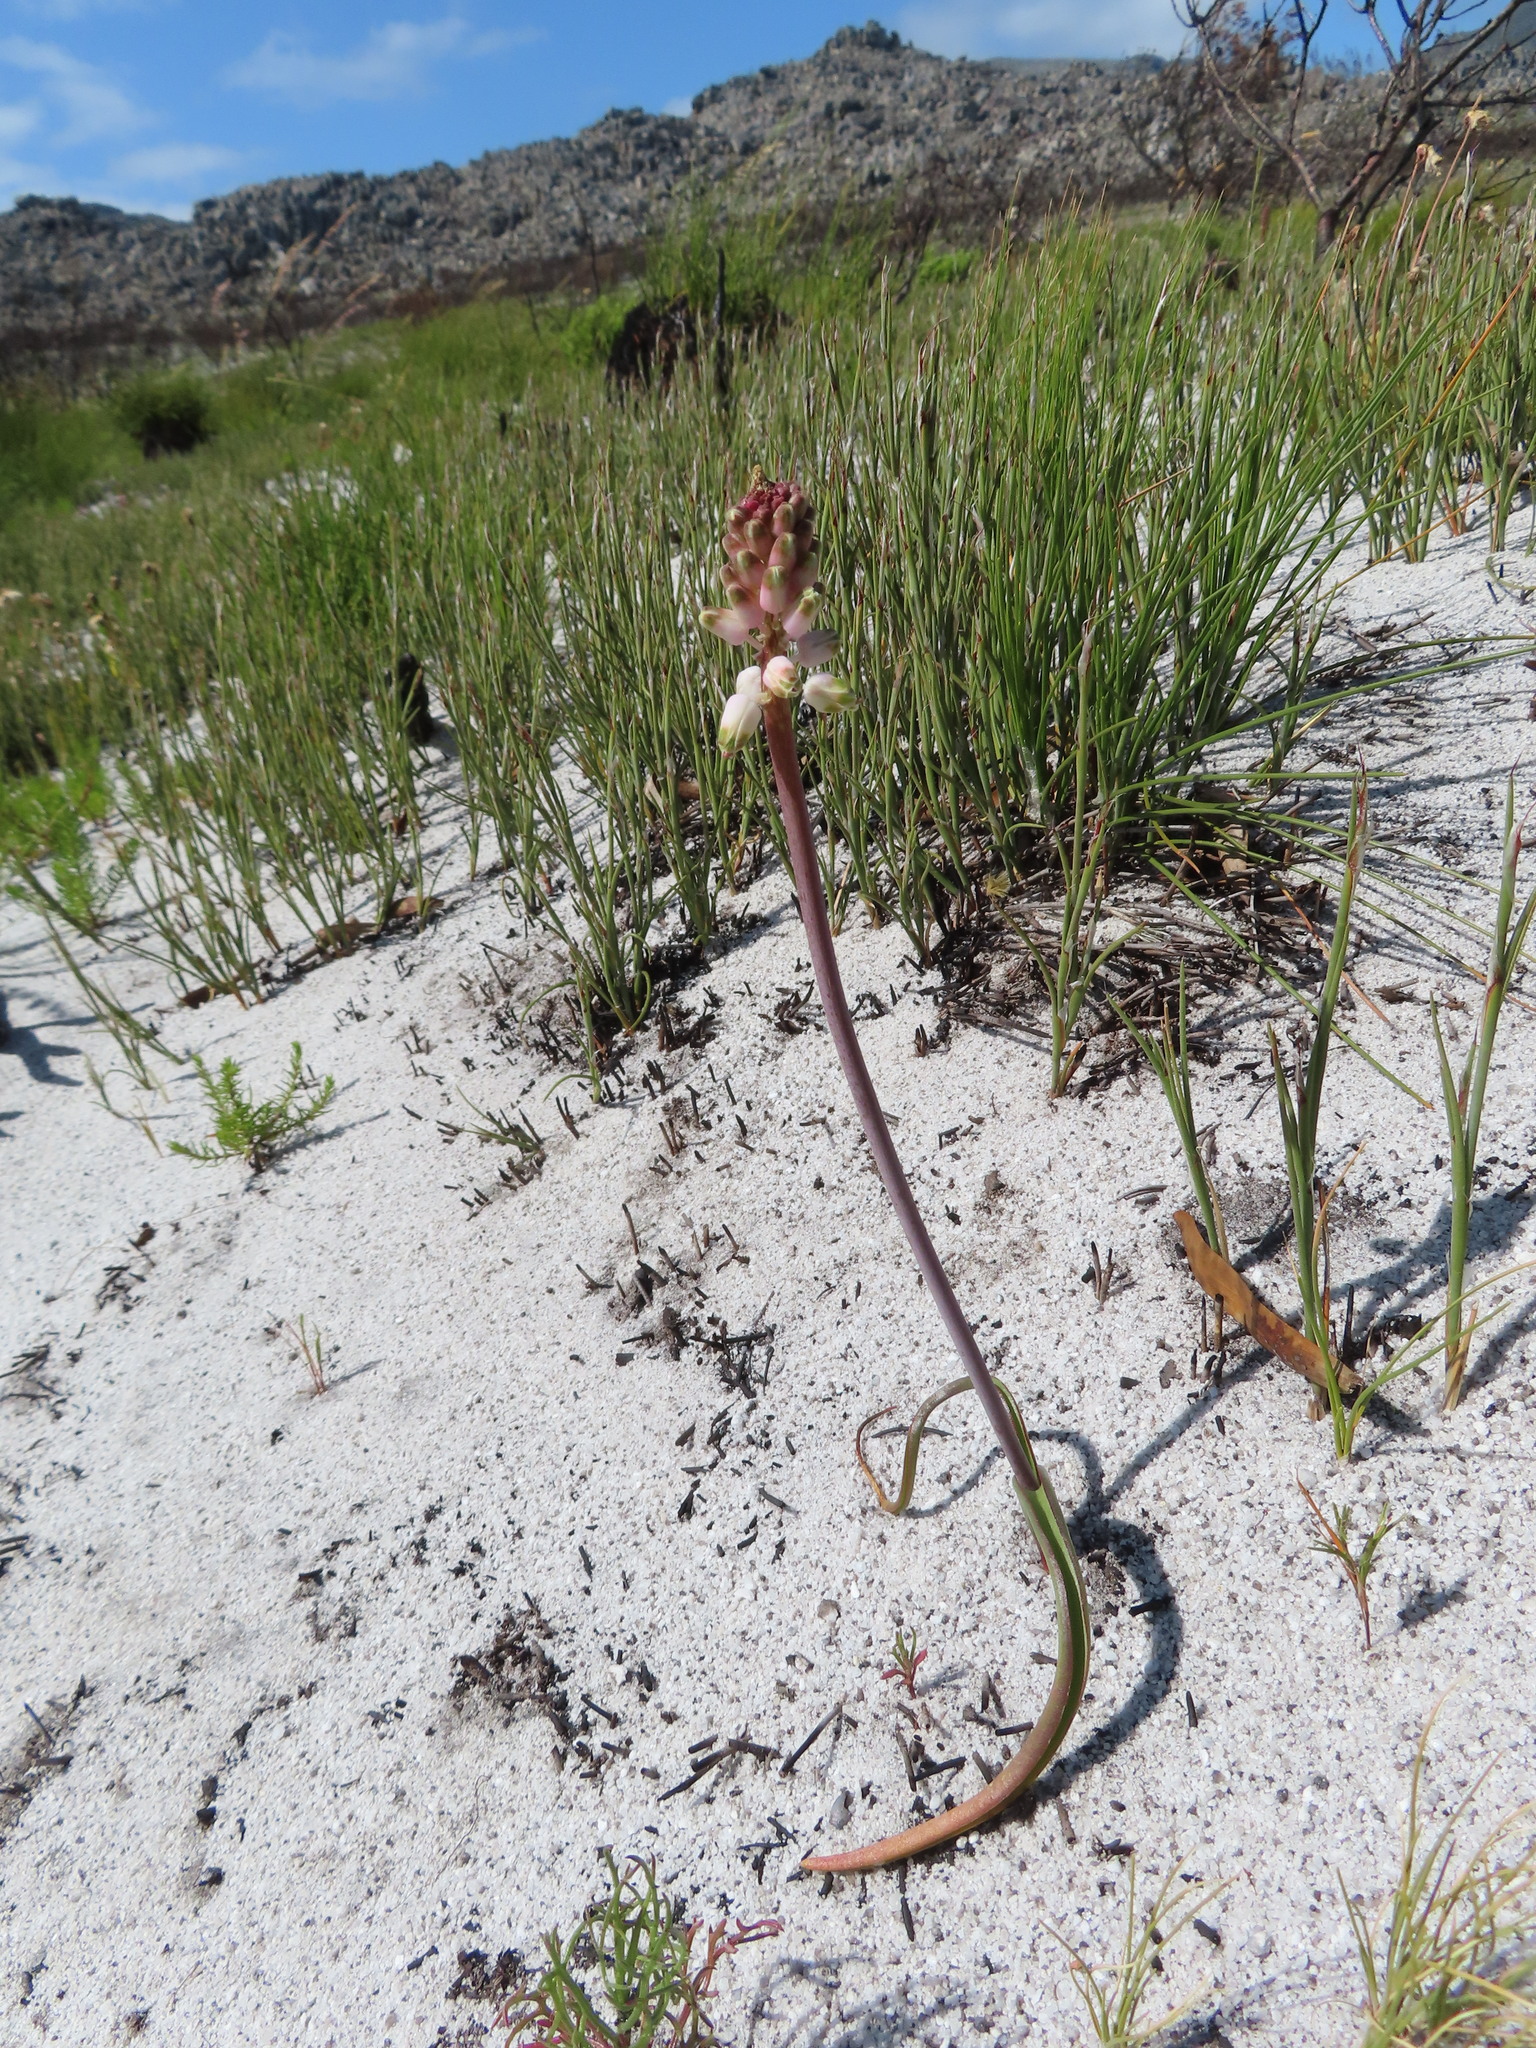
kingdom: Plantae
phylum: Tracheophyta
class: Liliopsida
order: Asparagales
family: Asparagaceae
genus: Lachenalia
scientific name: Lachenalia montana
